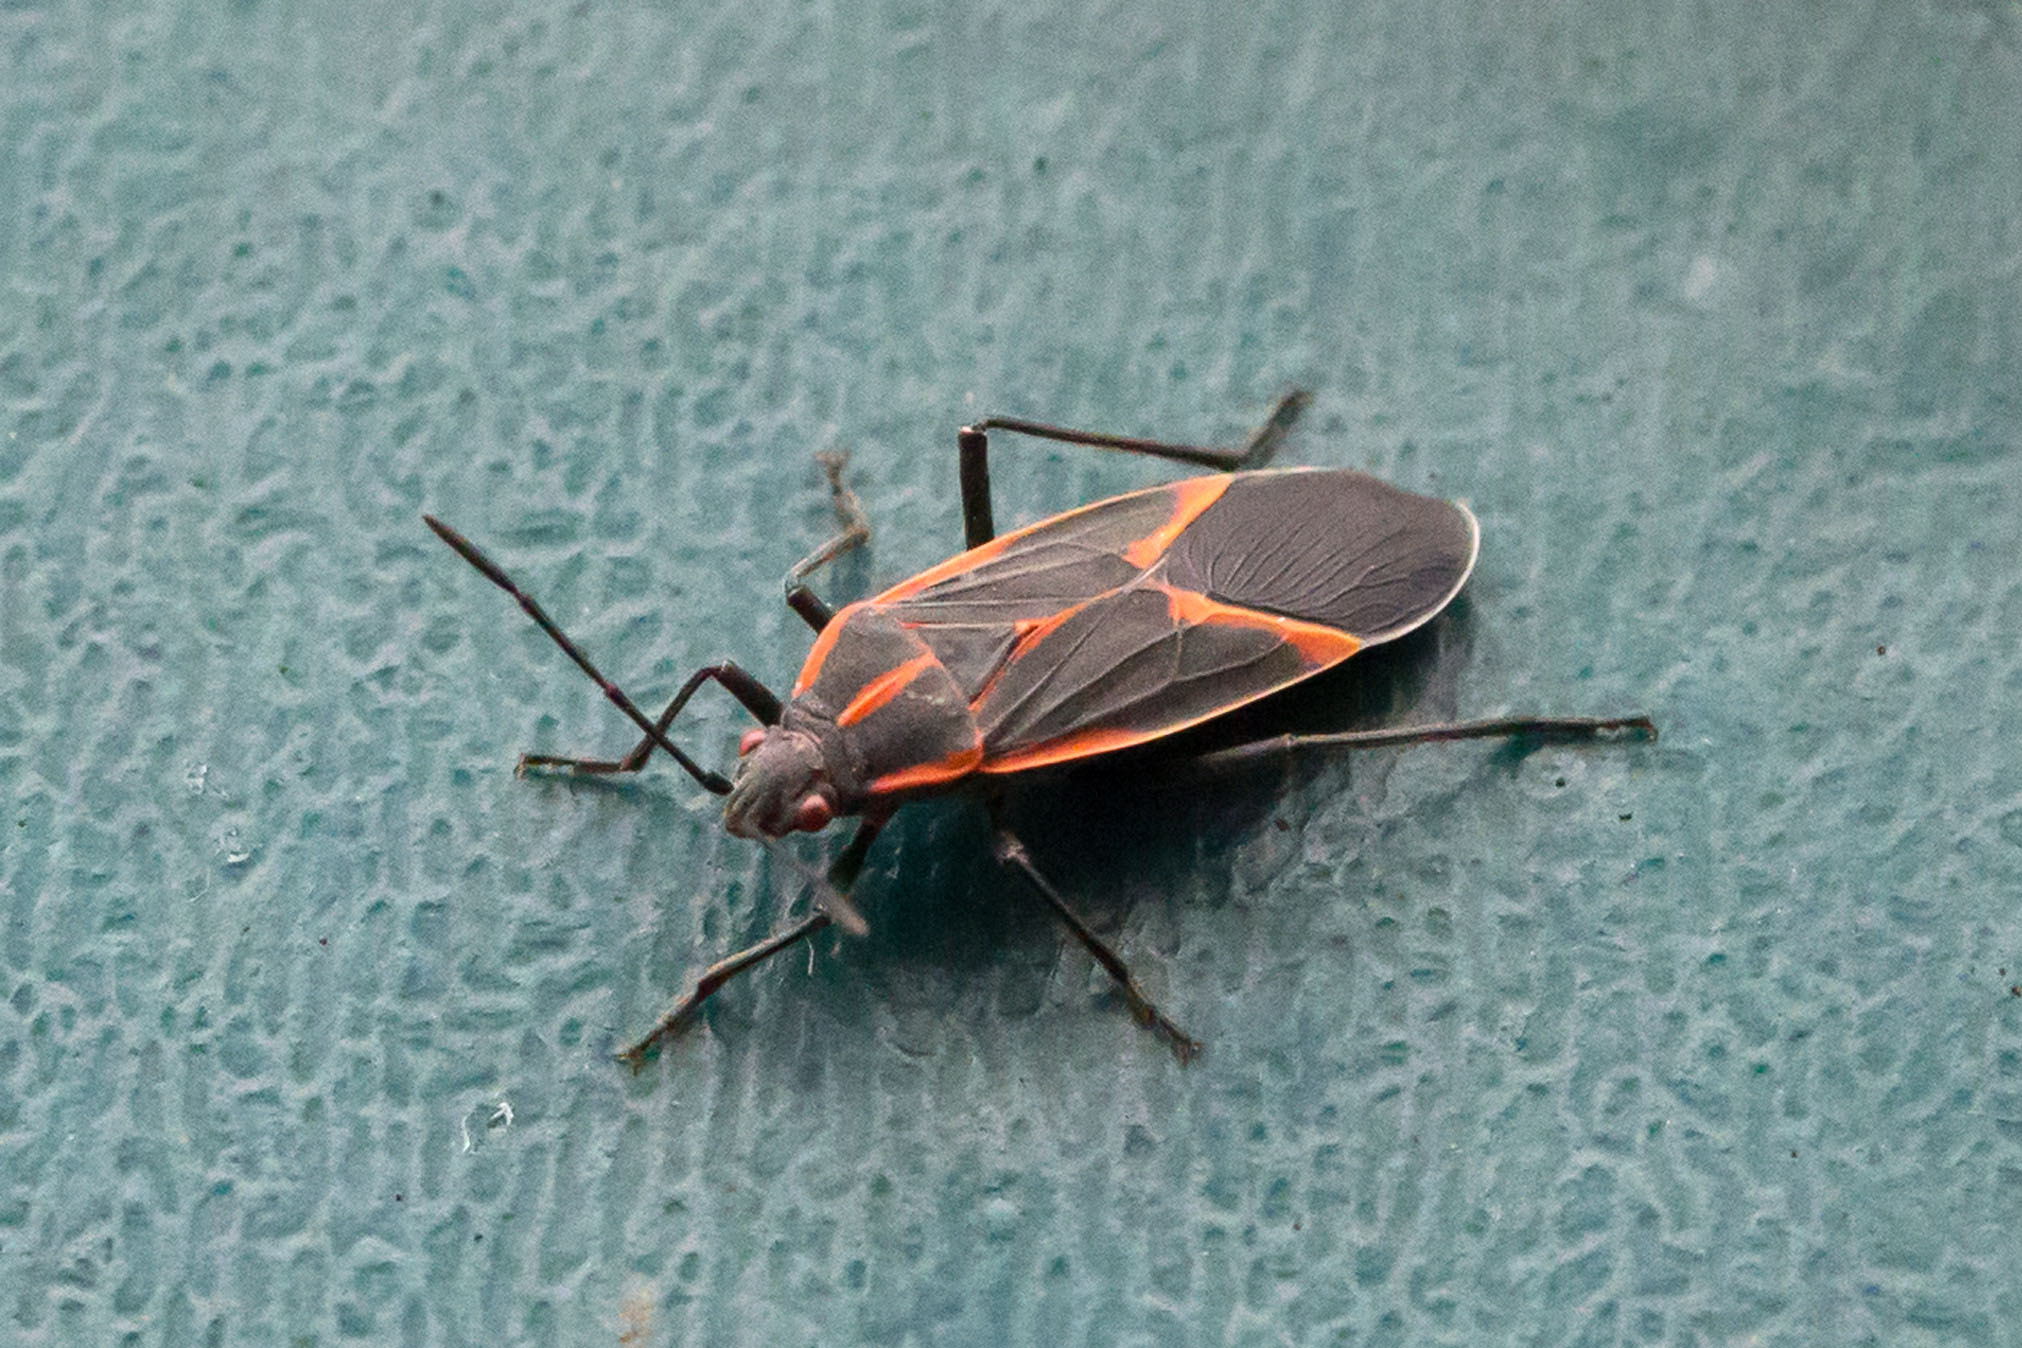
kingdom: Animalia
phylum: Arthropoda
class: Insecta
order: Hemiptera
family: Rhopalidae
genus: Boisea
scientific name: Boisea trivittata
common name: Boxelder bug
